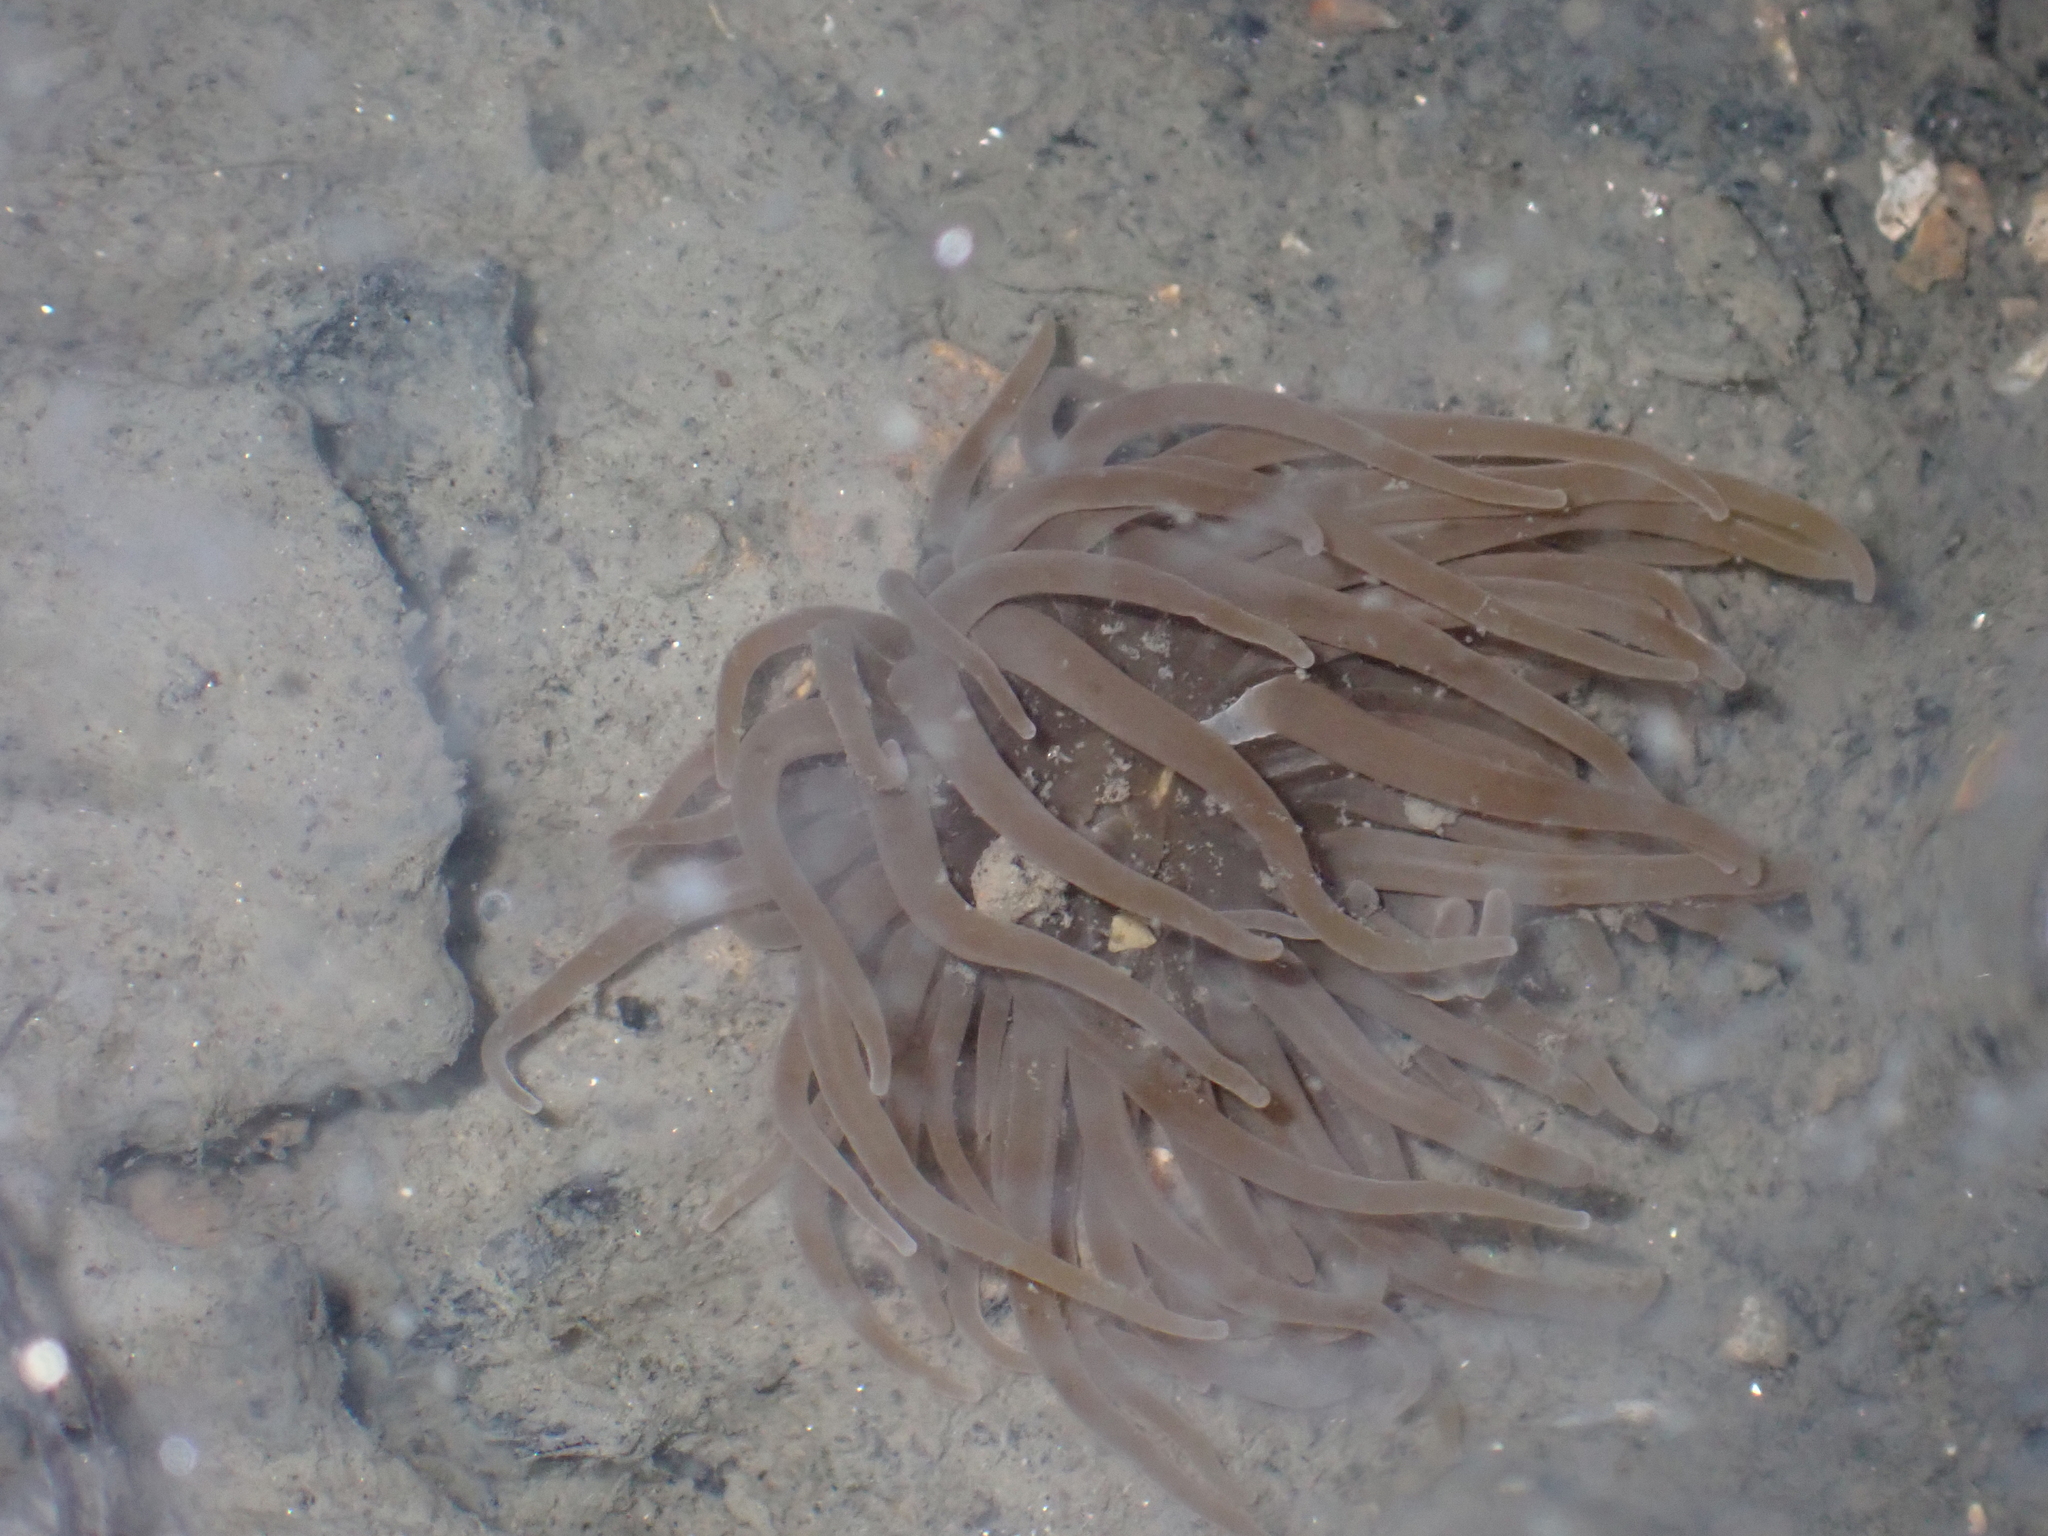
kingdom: Animalia
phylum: Cnidaria
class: Anthozoa
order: Actiniaria
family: Actiniidae
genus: Anemonia
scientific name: Anemonia viridis
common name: Snakelocks anemone
